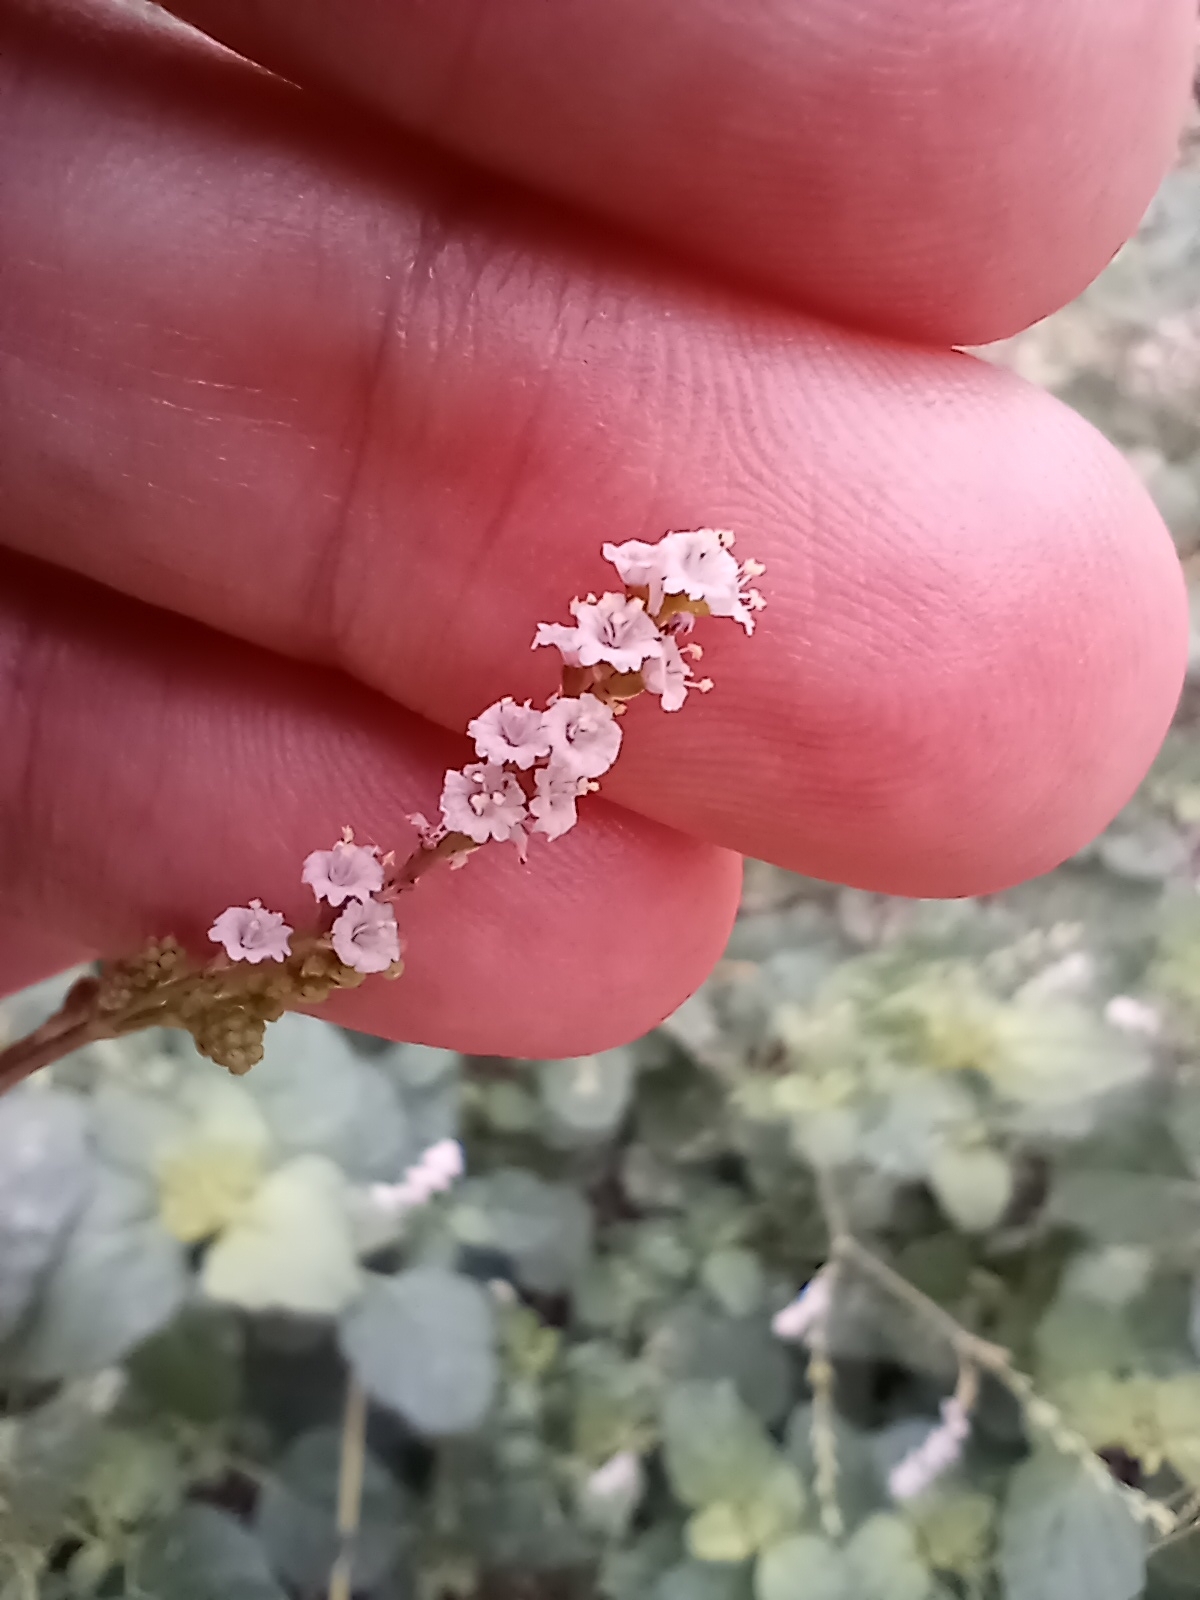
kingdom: Plantae
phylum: Tracheophyta
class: Magnoliopsida
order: Caryophyllales
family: Nyctaginaceae
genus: Boerhavia
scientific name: Boerhavia coulteri
